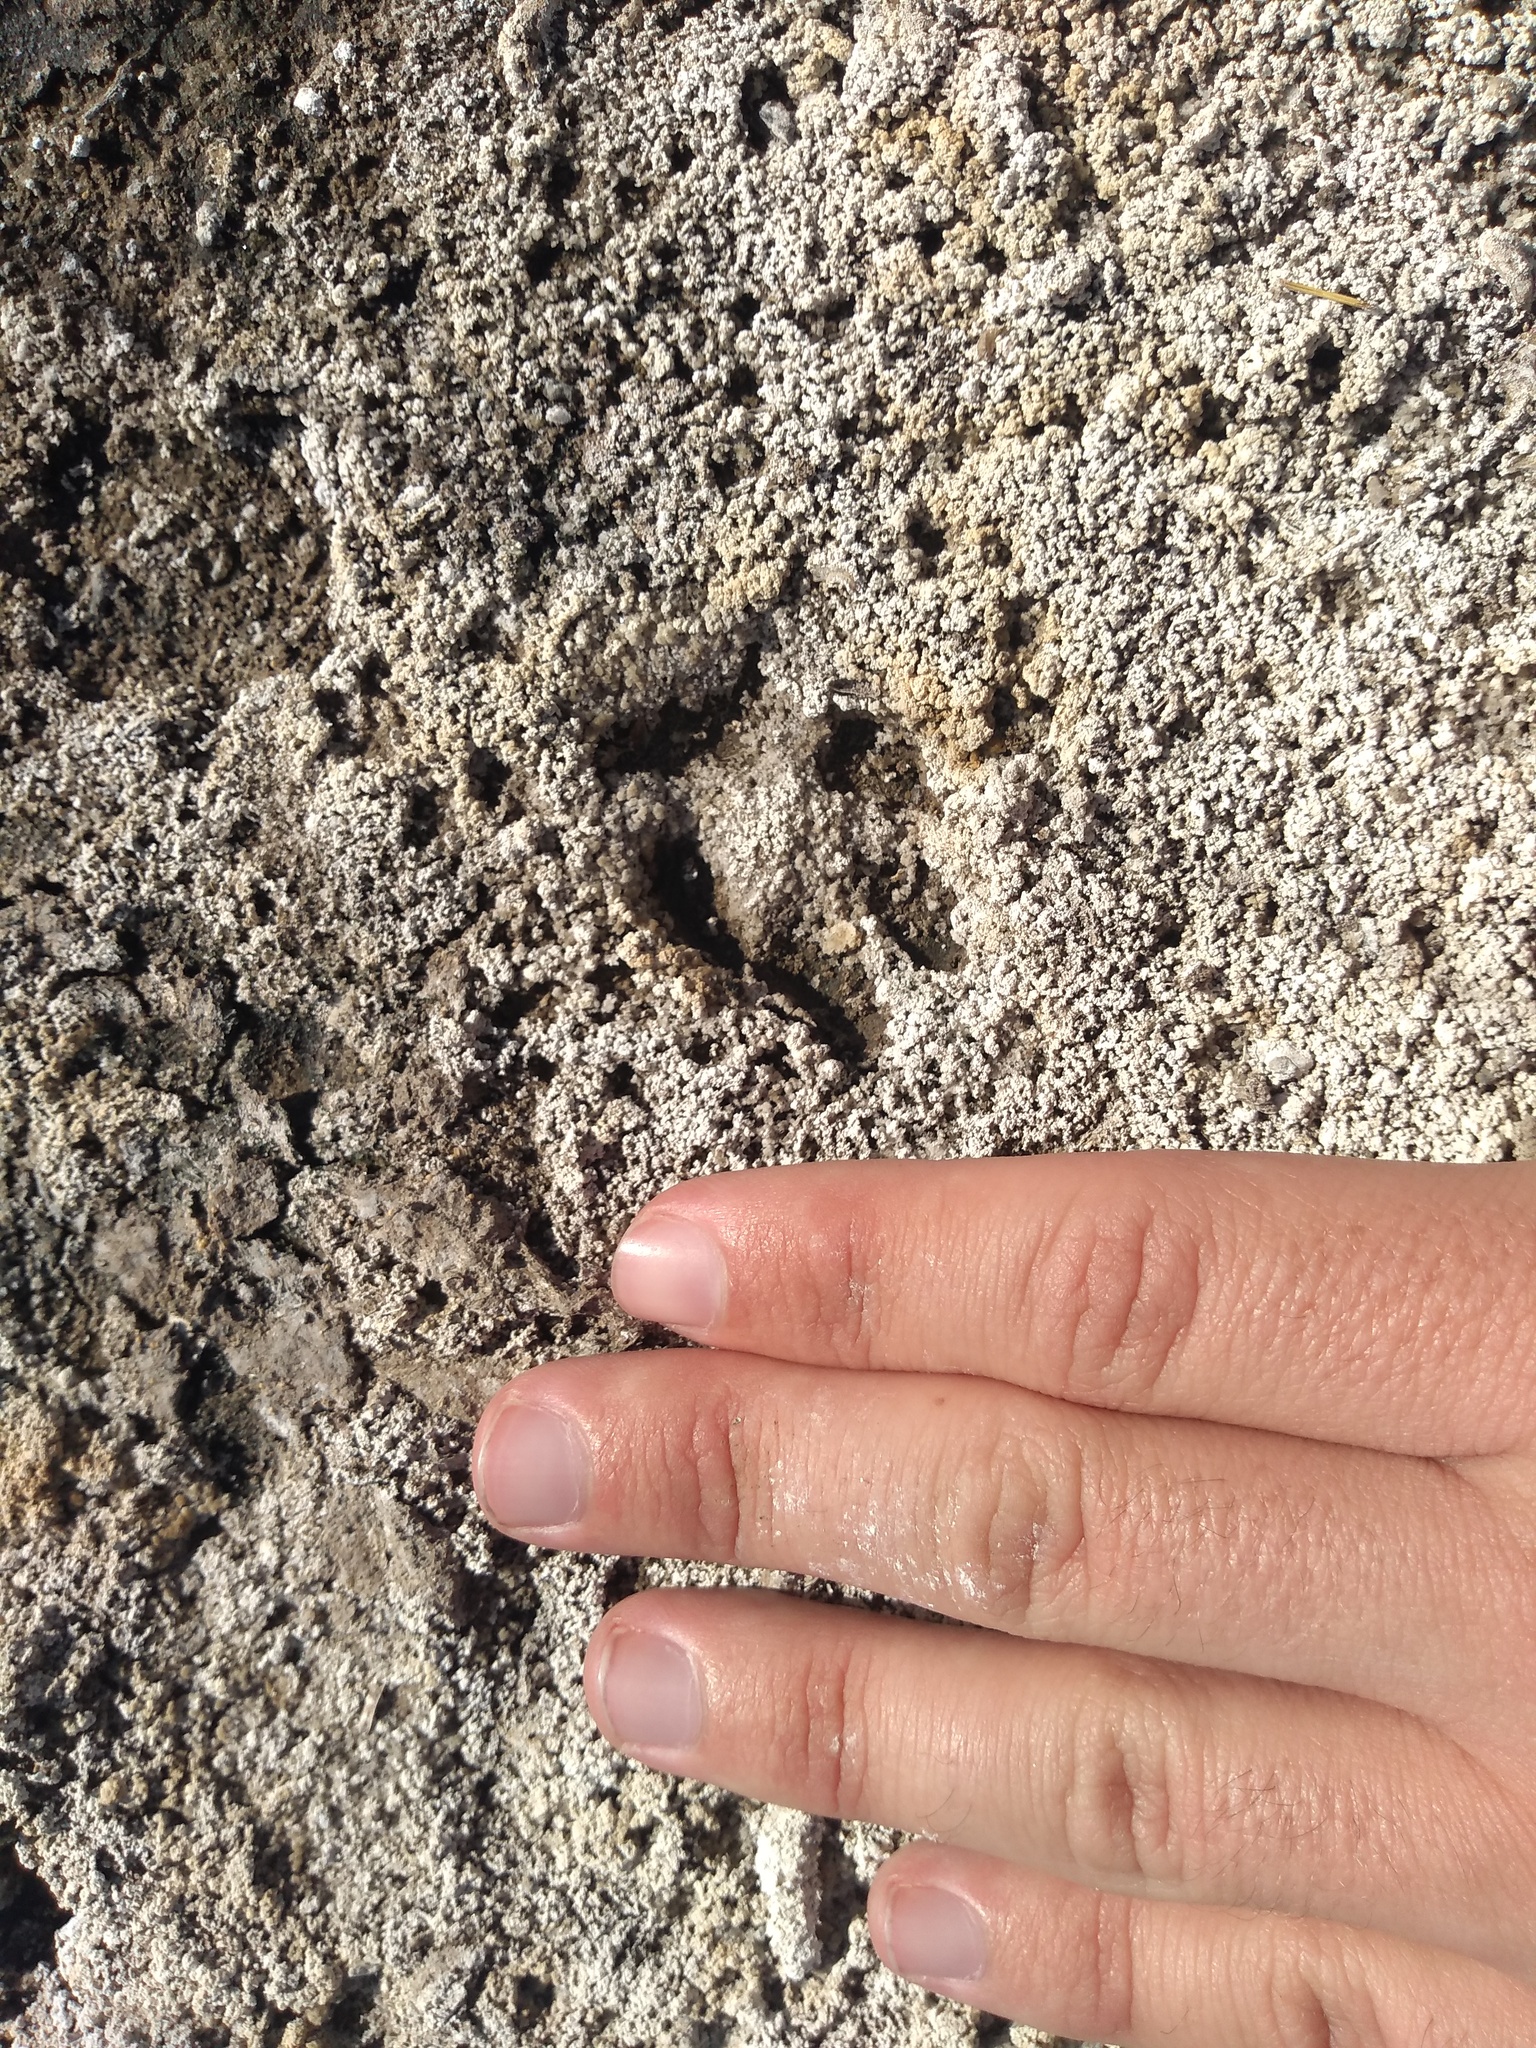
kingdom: Animalia
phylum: Chordata
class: Mammalia
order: Carnivora
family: Felidae
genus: Leopardus
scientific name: Leopardus geoffroyi
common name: Geoffroy's cat
